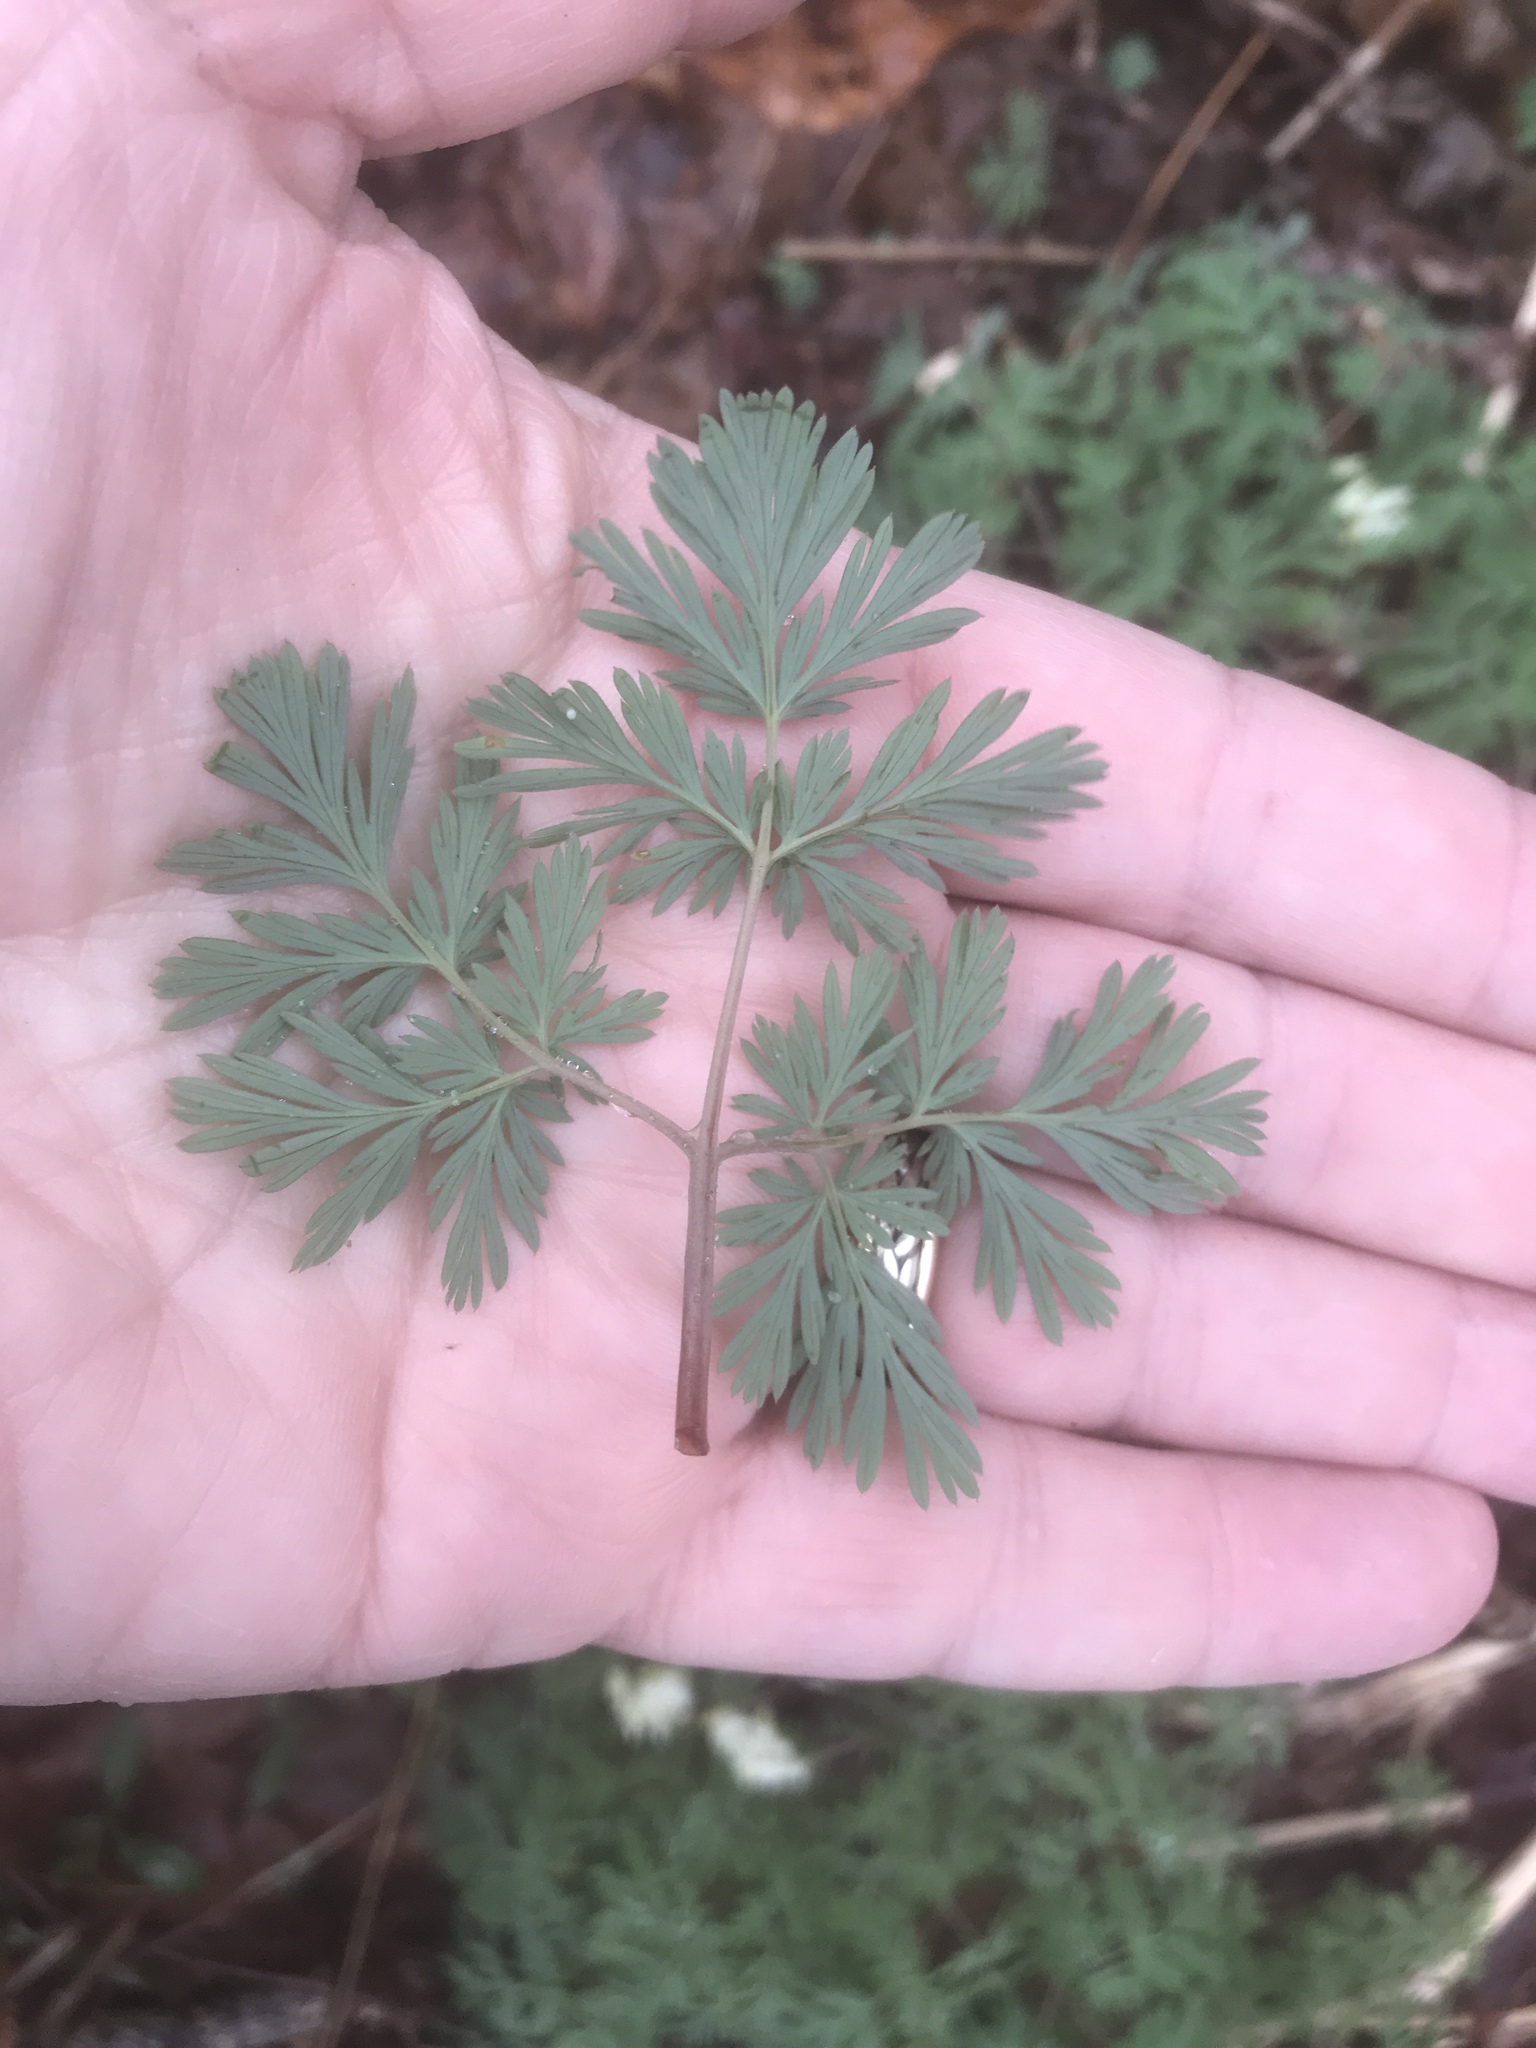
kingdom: Plantae
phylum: Tracheophyta
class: Magnoliopsida
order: Ranunculales
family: Papaveraceae
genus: Dicentra
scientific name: Dicentra cucullaria
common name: Dutchman's breeches
